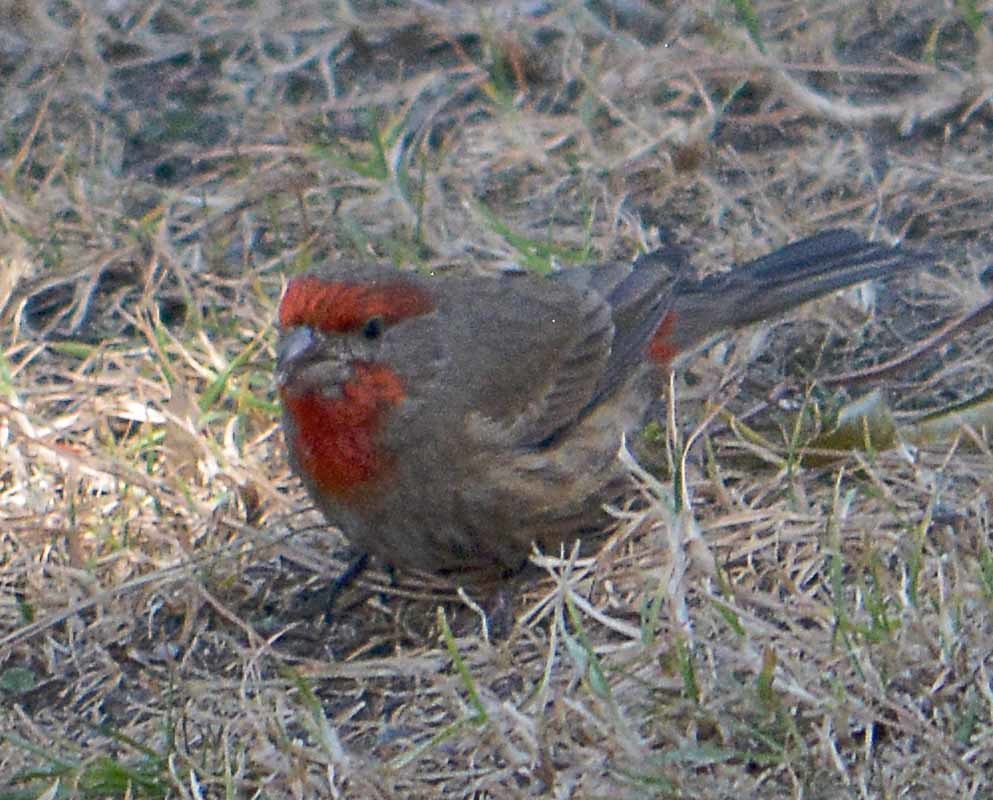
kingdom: Animalia
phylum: Chordata
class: Aves
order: Passeriformes
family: Fringillidae
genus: Haemorhous
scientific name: Haemorhous mexicanus
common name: House finch
